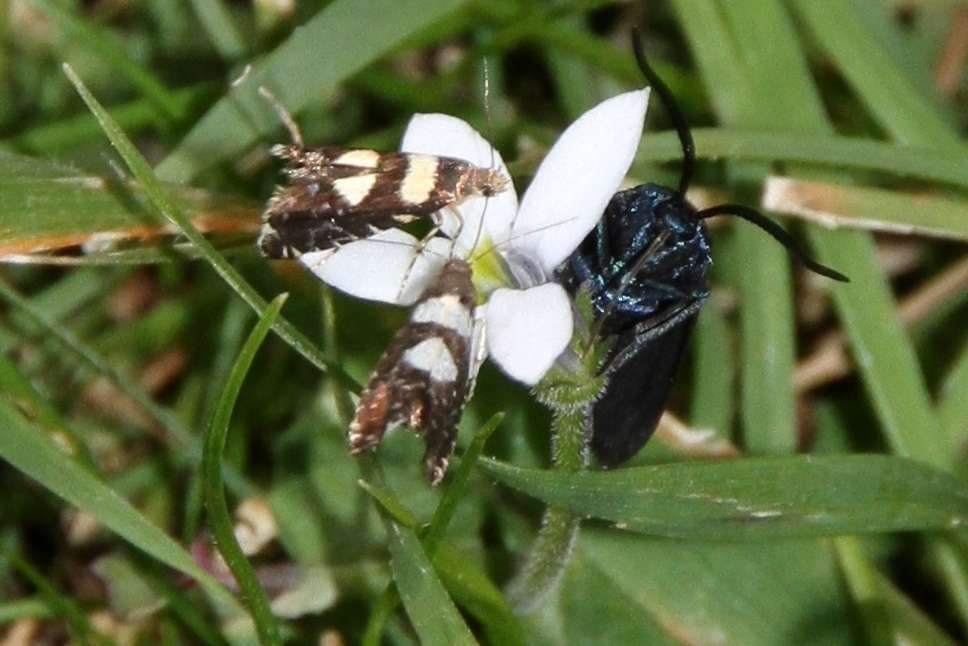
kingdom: Animalia
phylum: Arthropoda
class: Insecta
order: Lepidoptera
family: Glyphipterigidae
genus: Glyphipterix
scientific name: Glyphipterix chrysoplanetis
